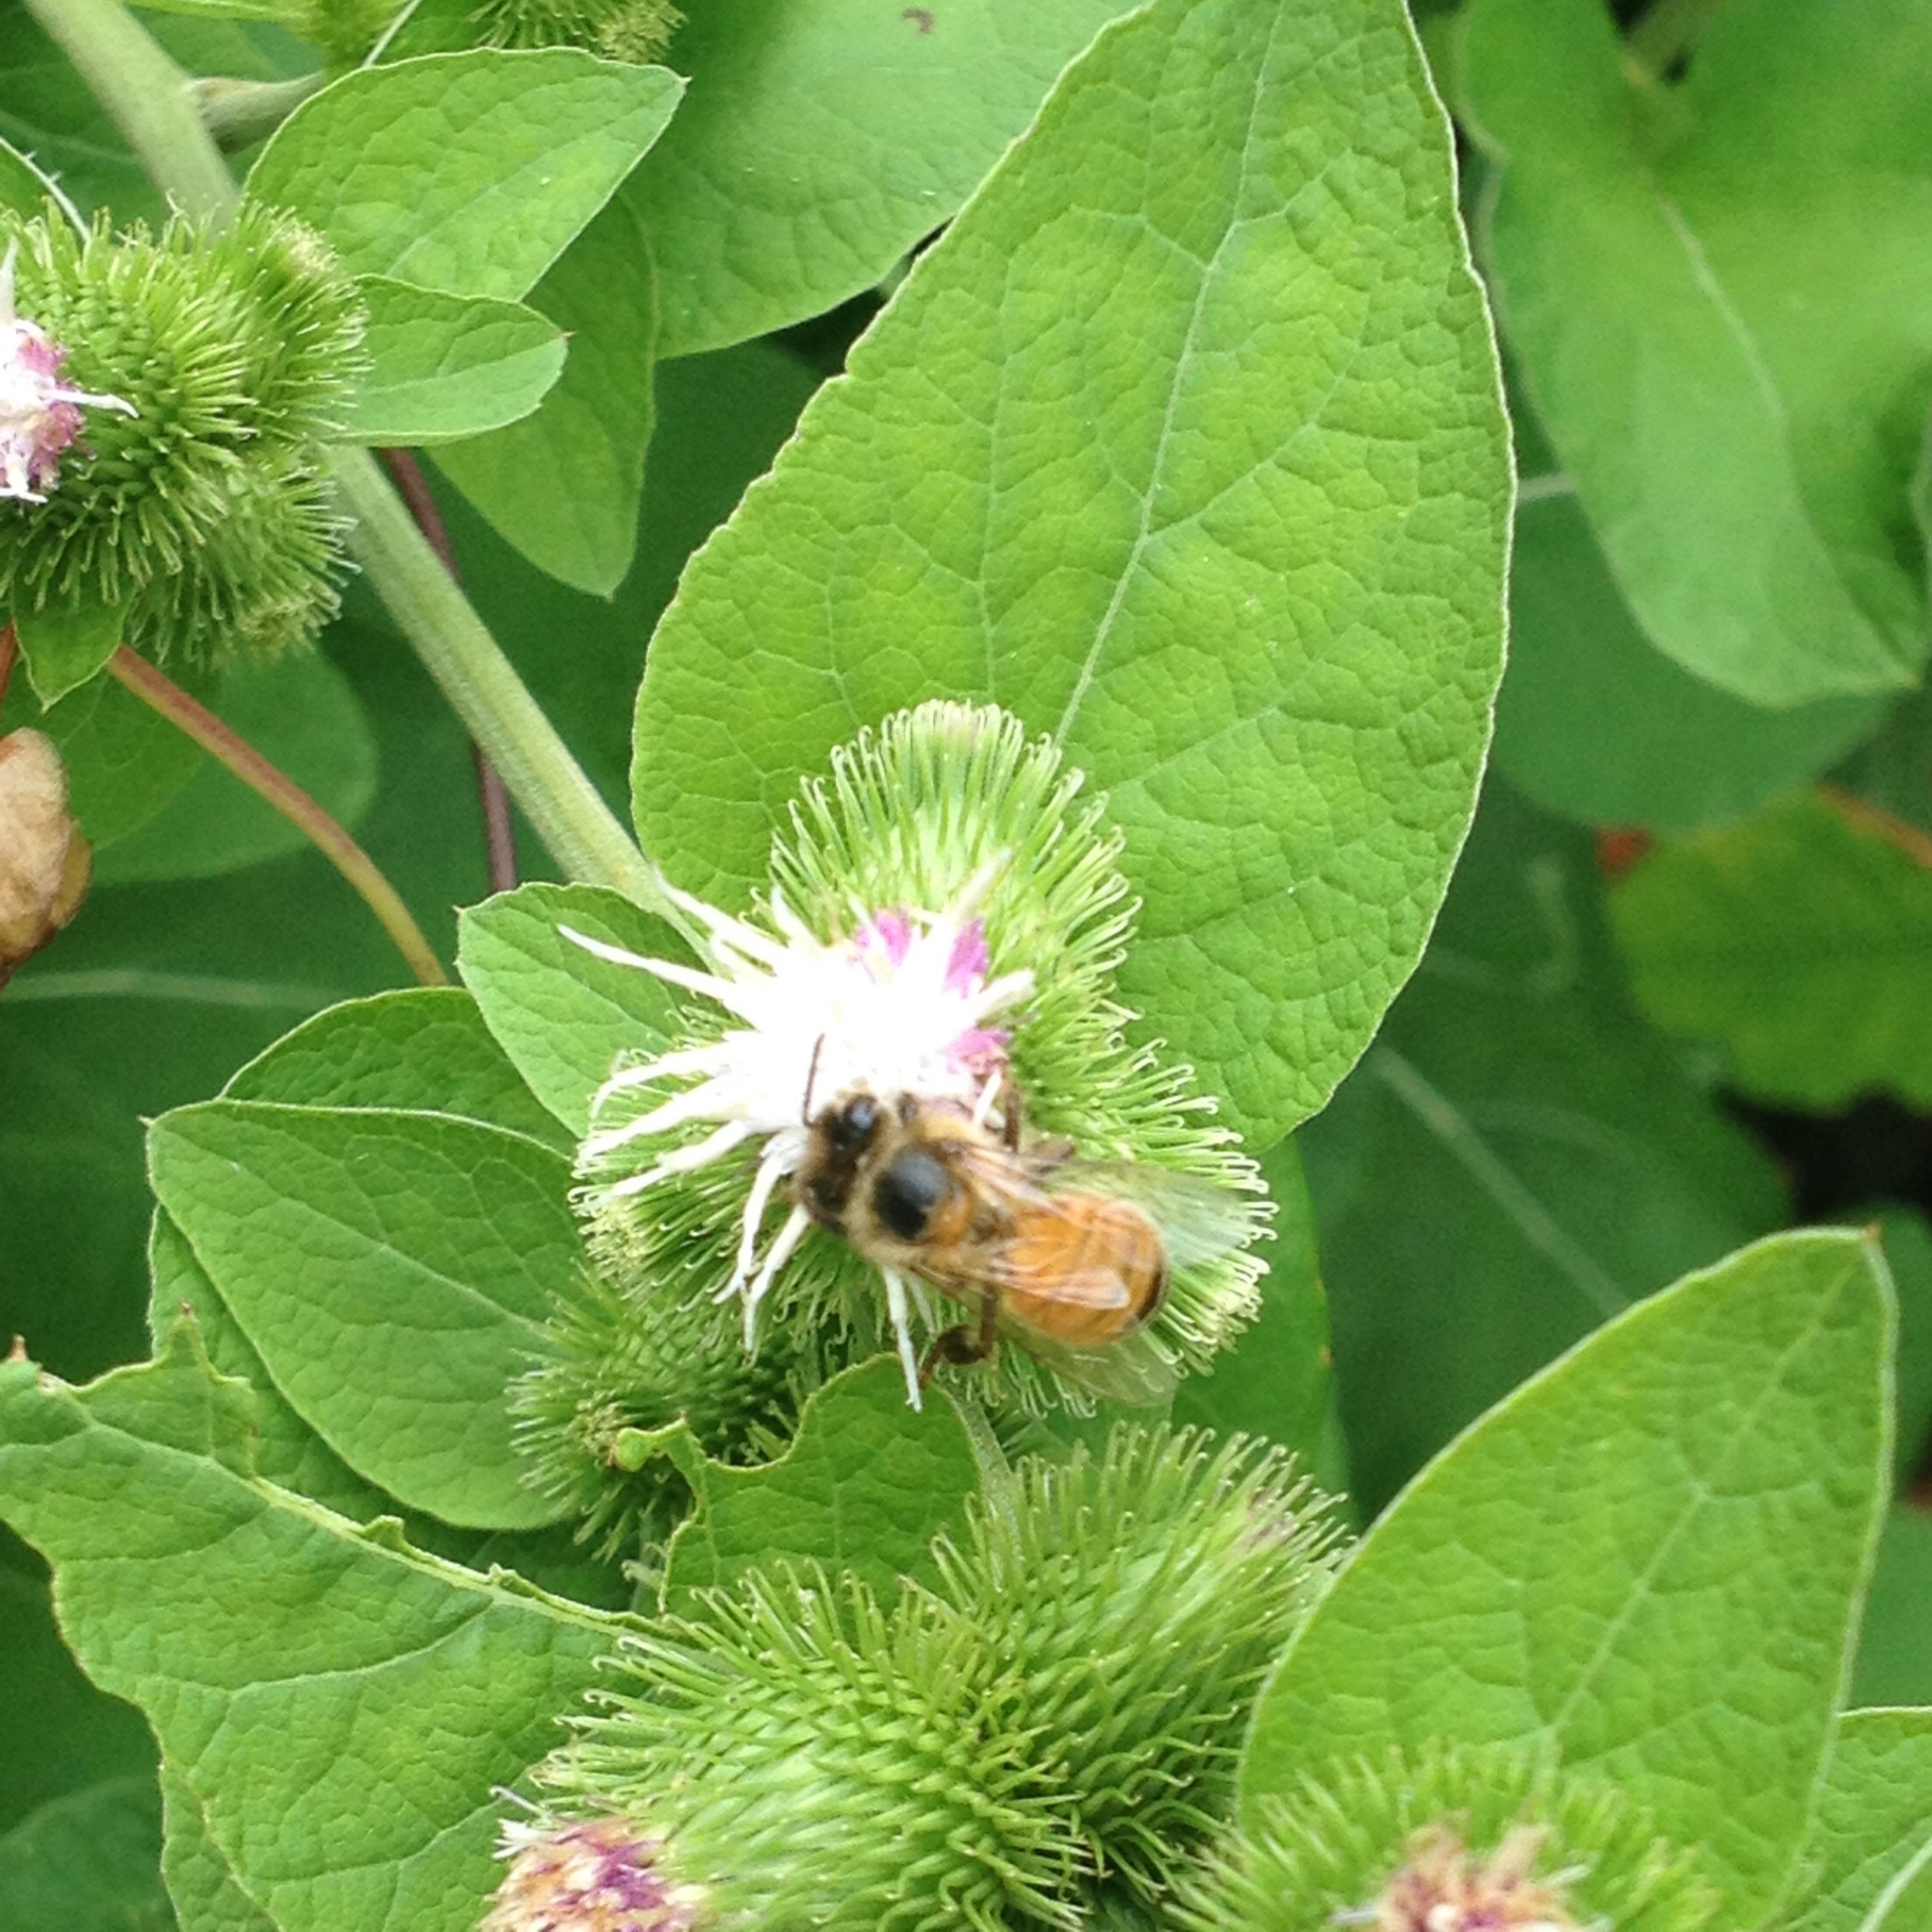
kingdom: Animalia
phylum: Arthropoda
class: Insecta
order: Hymenoptera
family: Apidae
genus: Apis
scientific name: Apis mellifera
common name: Honey bee
